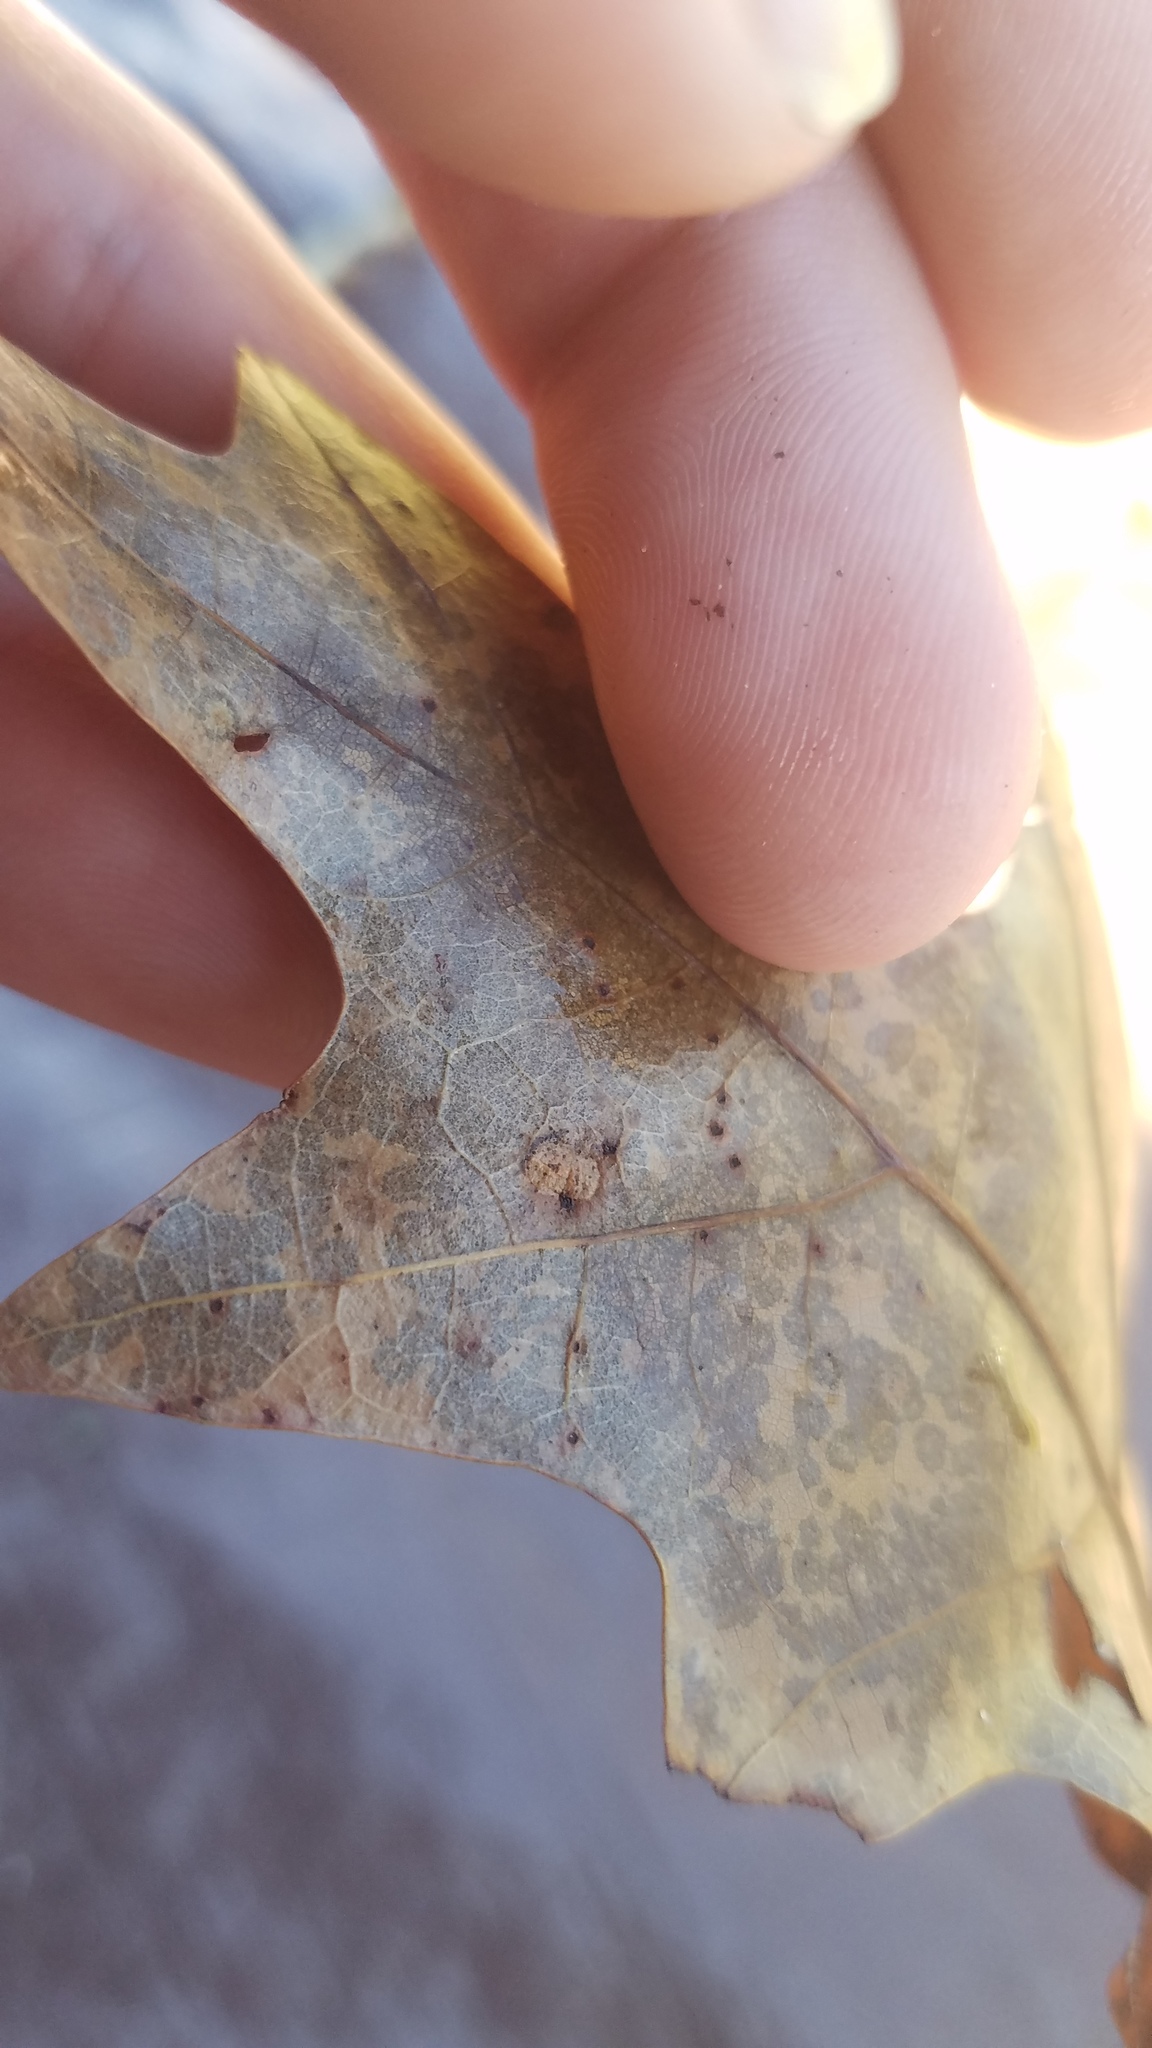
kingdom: Animalia
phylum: Arthropoda
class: Insecta
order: Diptera
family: Cecidomyiidae
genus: Polystepha
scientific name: Polystepha pilulae
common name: Oak leaf gall midge
